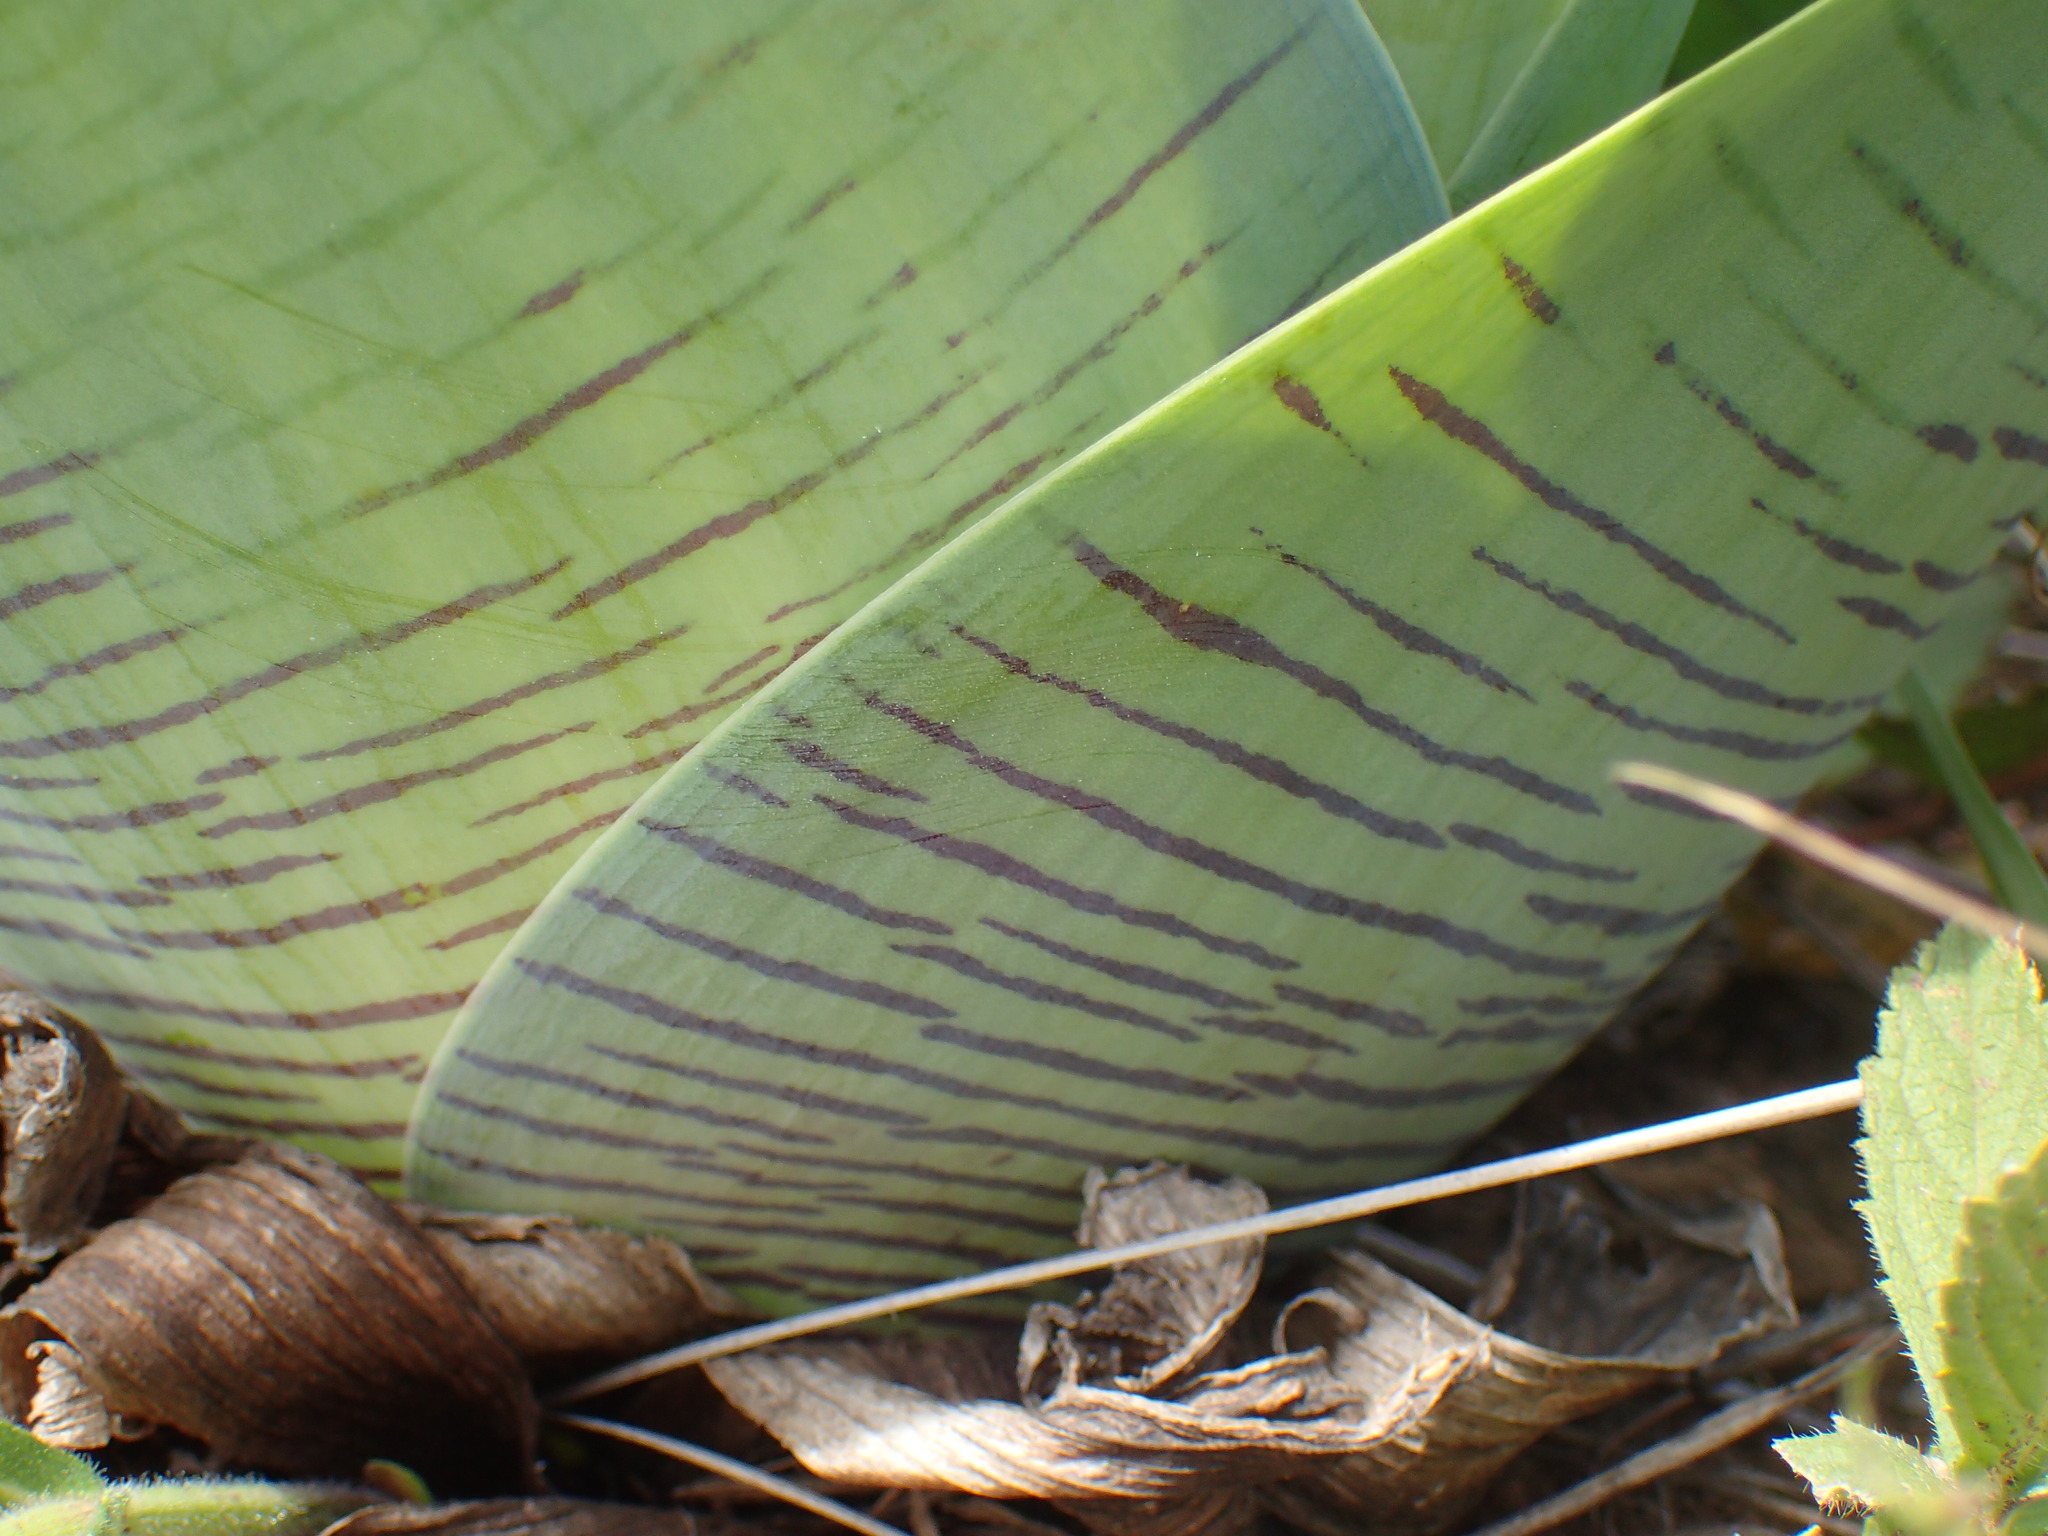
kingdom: Plantae
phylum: Tracheophyta
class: Liliopsida
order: Asparagales
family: Asparagaceae
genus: Ledebouria
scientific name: Ledebouria zebrina
